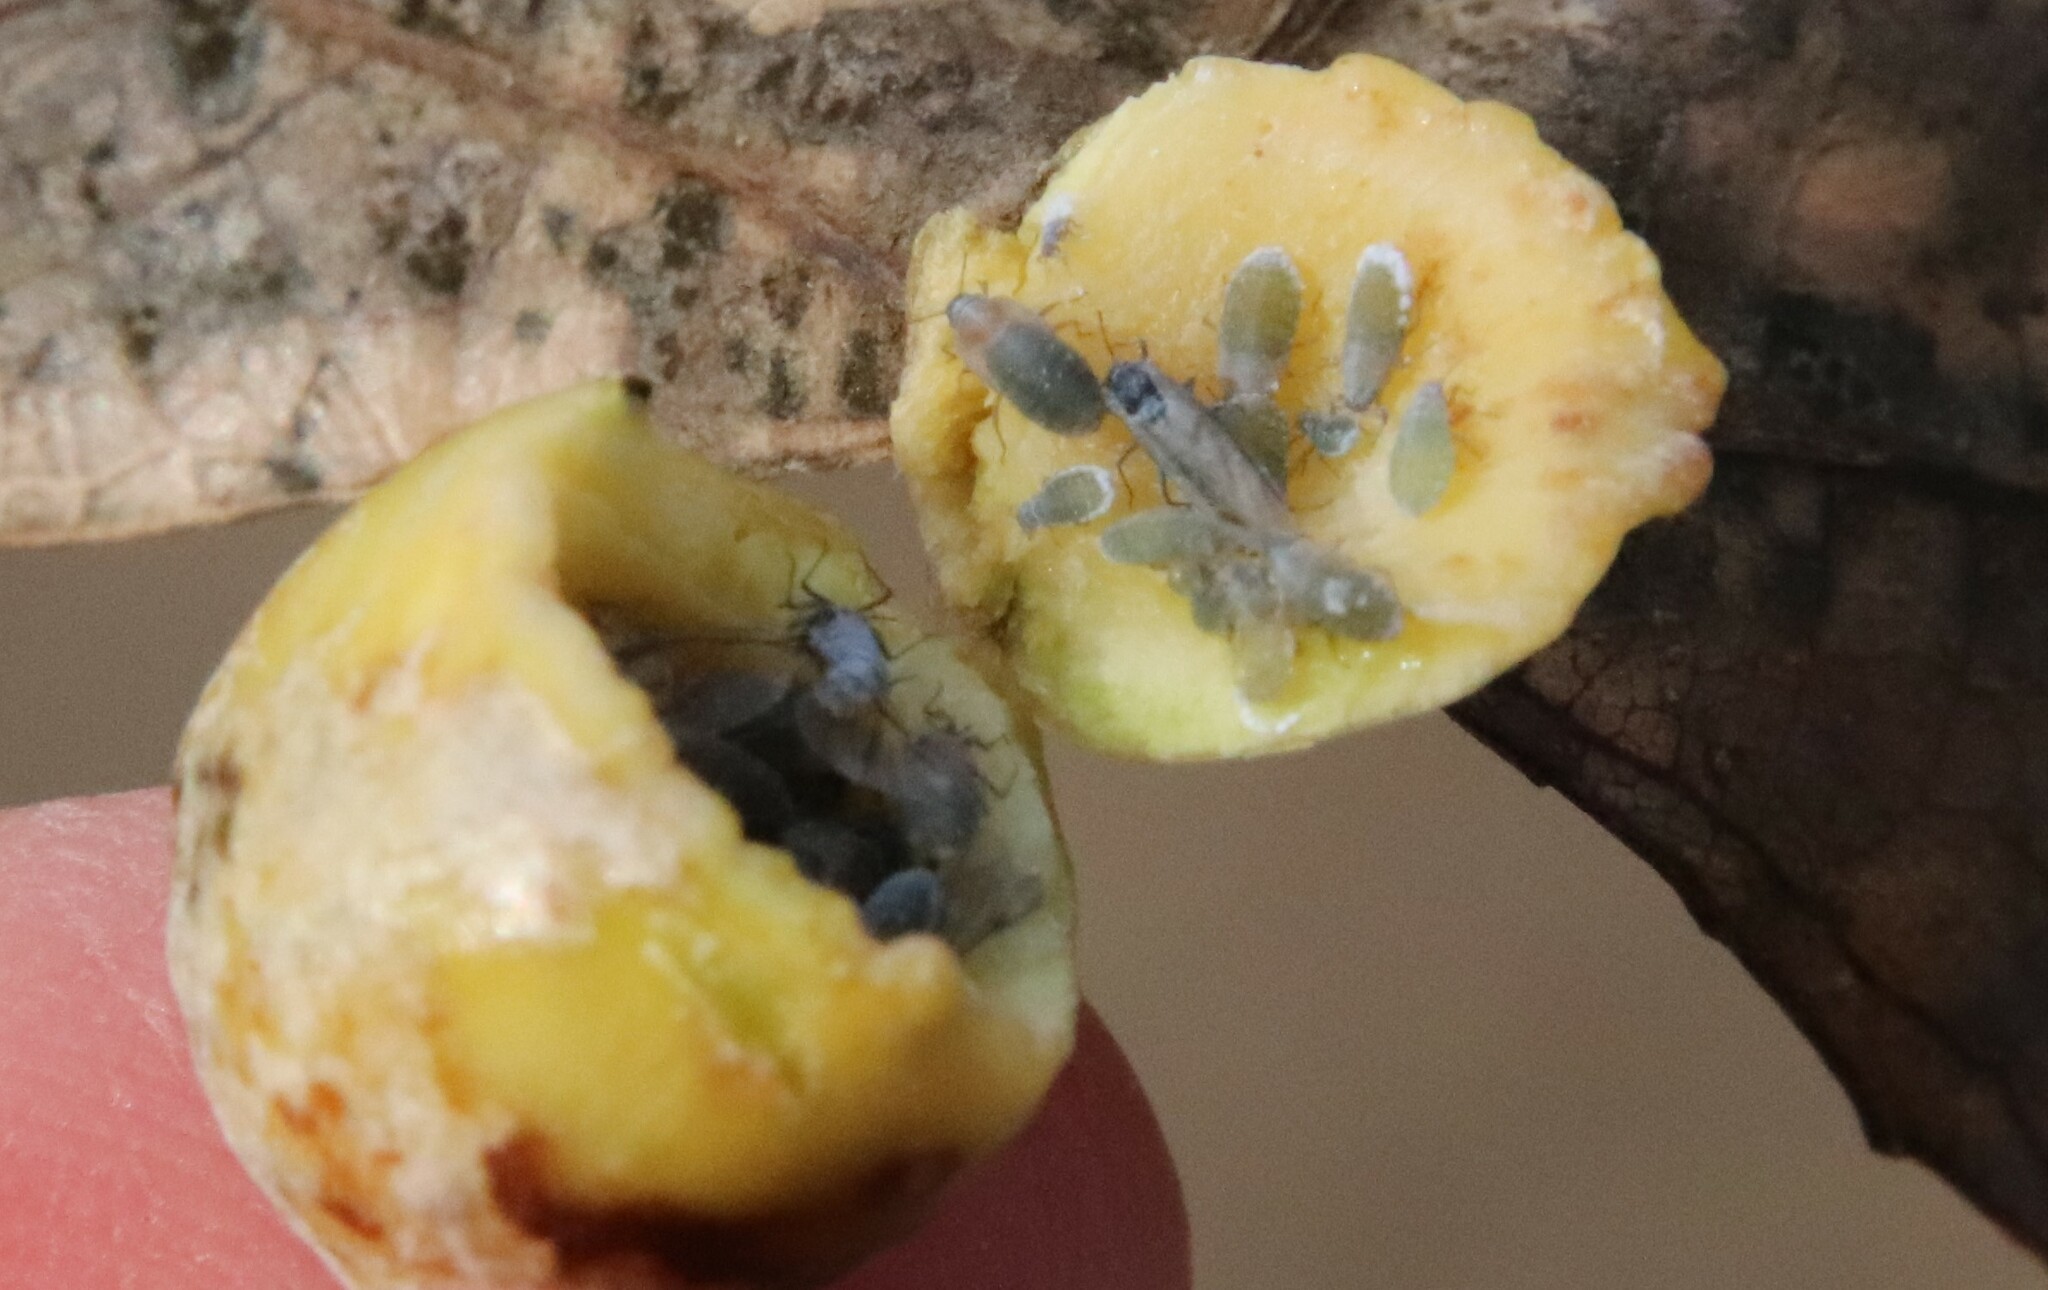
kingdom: Animalia
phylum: Arthropoda
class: Insecta
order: Hemiptera
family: Aphididae
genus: Pemphigus
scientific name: Pemphigus obesinymphae
